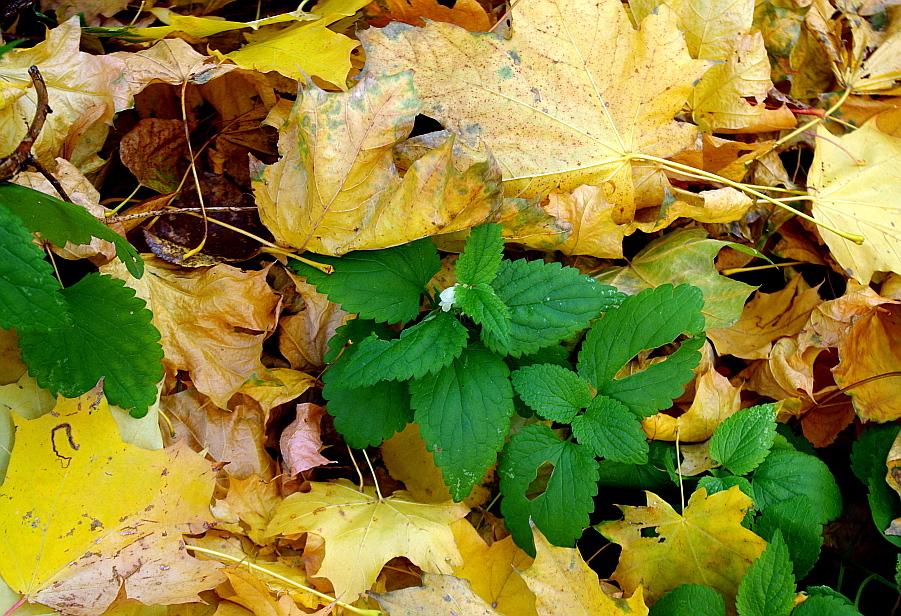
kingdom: Plantae
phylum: Tracheophyta
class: Magnoliopsida
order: Lamiales
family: Lamiaceae
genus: Lamium
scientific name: Lamium album
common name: White dead-nettle
